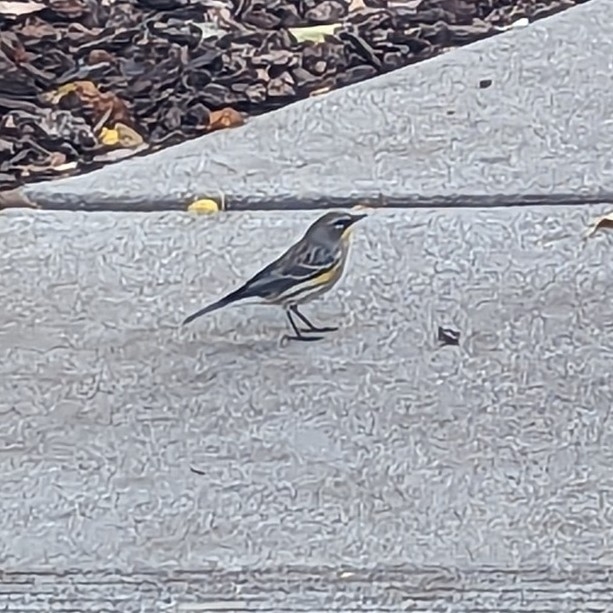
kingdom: Animalia
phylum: Chordata
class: Aves
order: Passeriformes
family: Parulidae
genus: Setophaga
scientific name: Setophaga coronata
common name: Myrtle warbler
